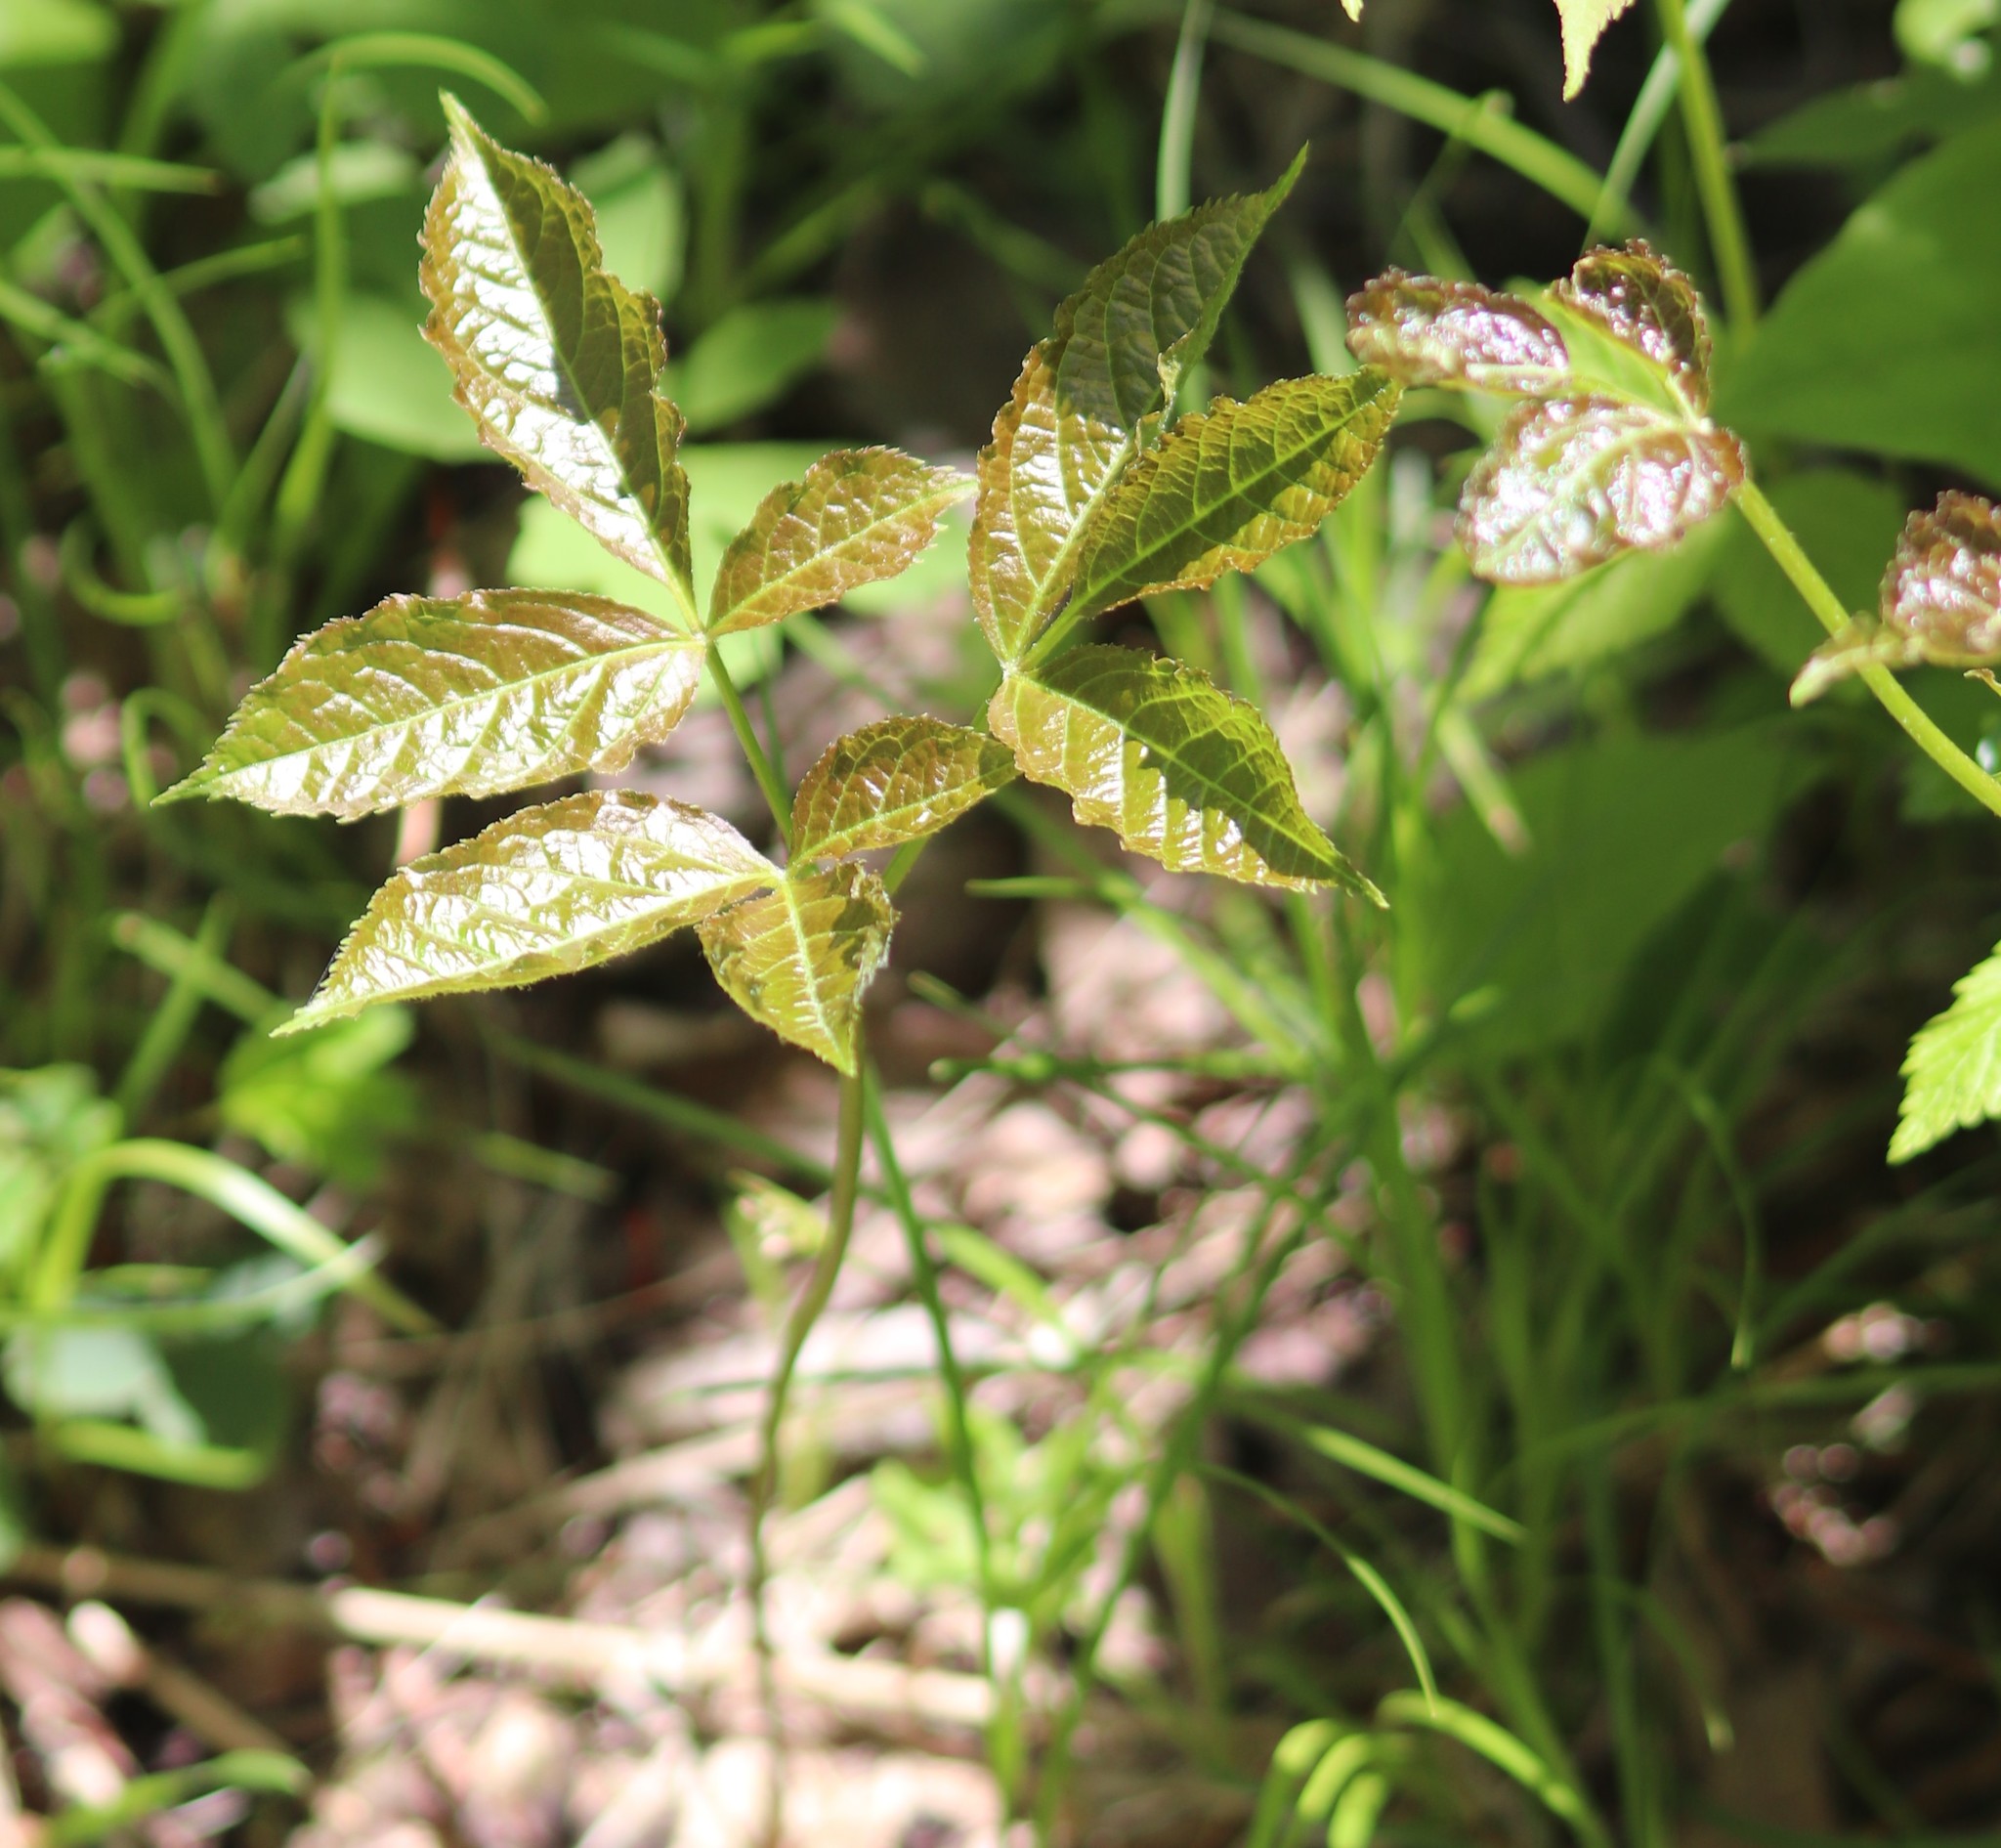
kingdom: Plantae
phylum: Tracheophyta
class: Magnoliopsida
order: Apiales
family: Araliaceae
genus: Aralia
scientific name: Aralia nudicaulis
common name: Wild sarsaparilla
